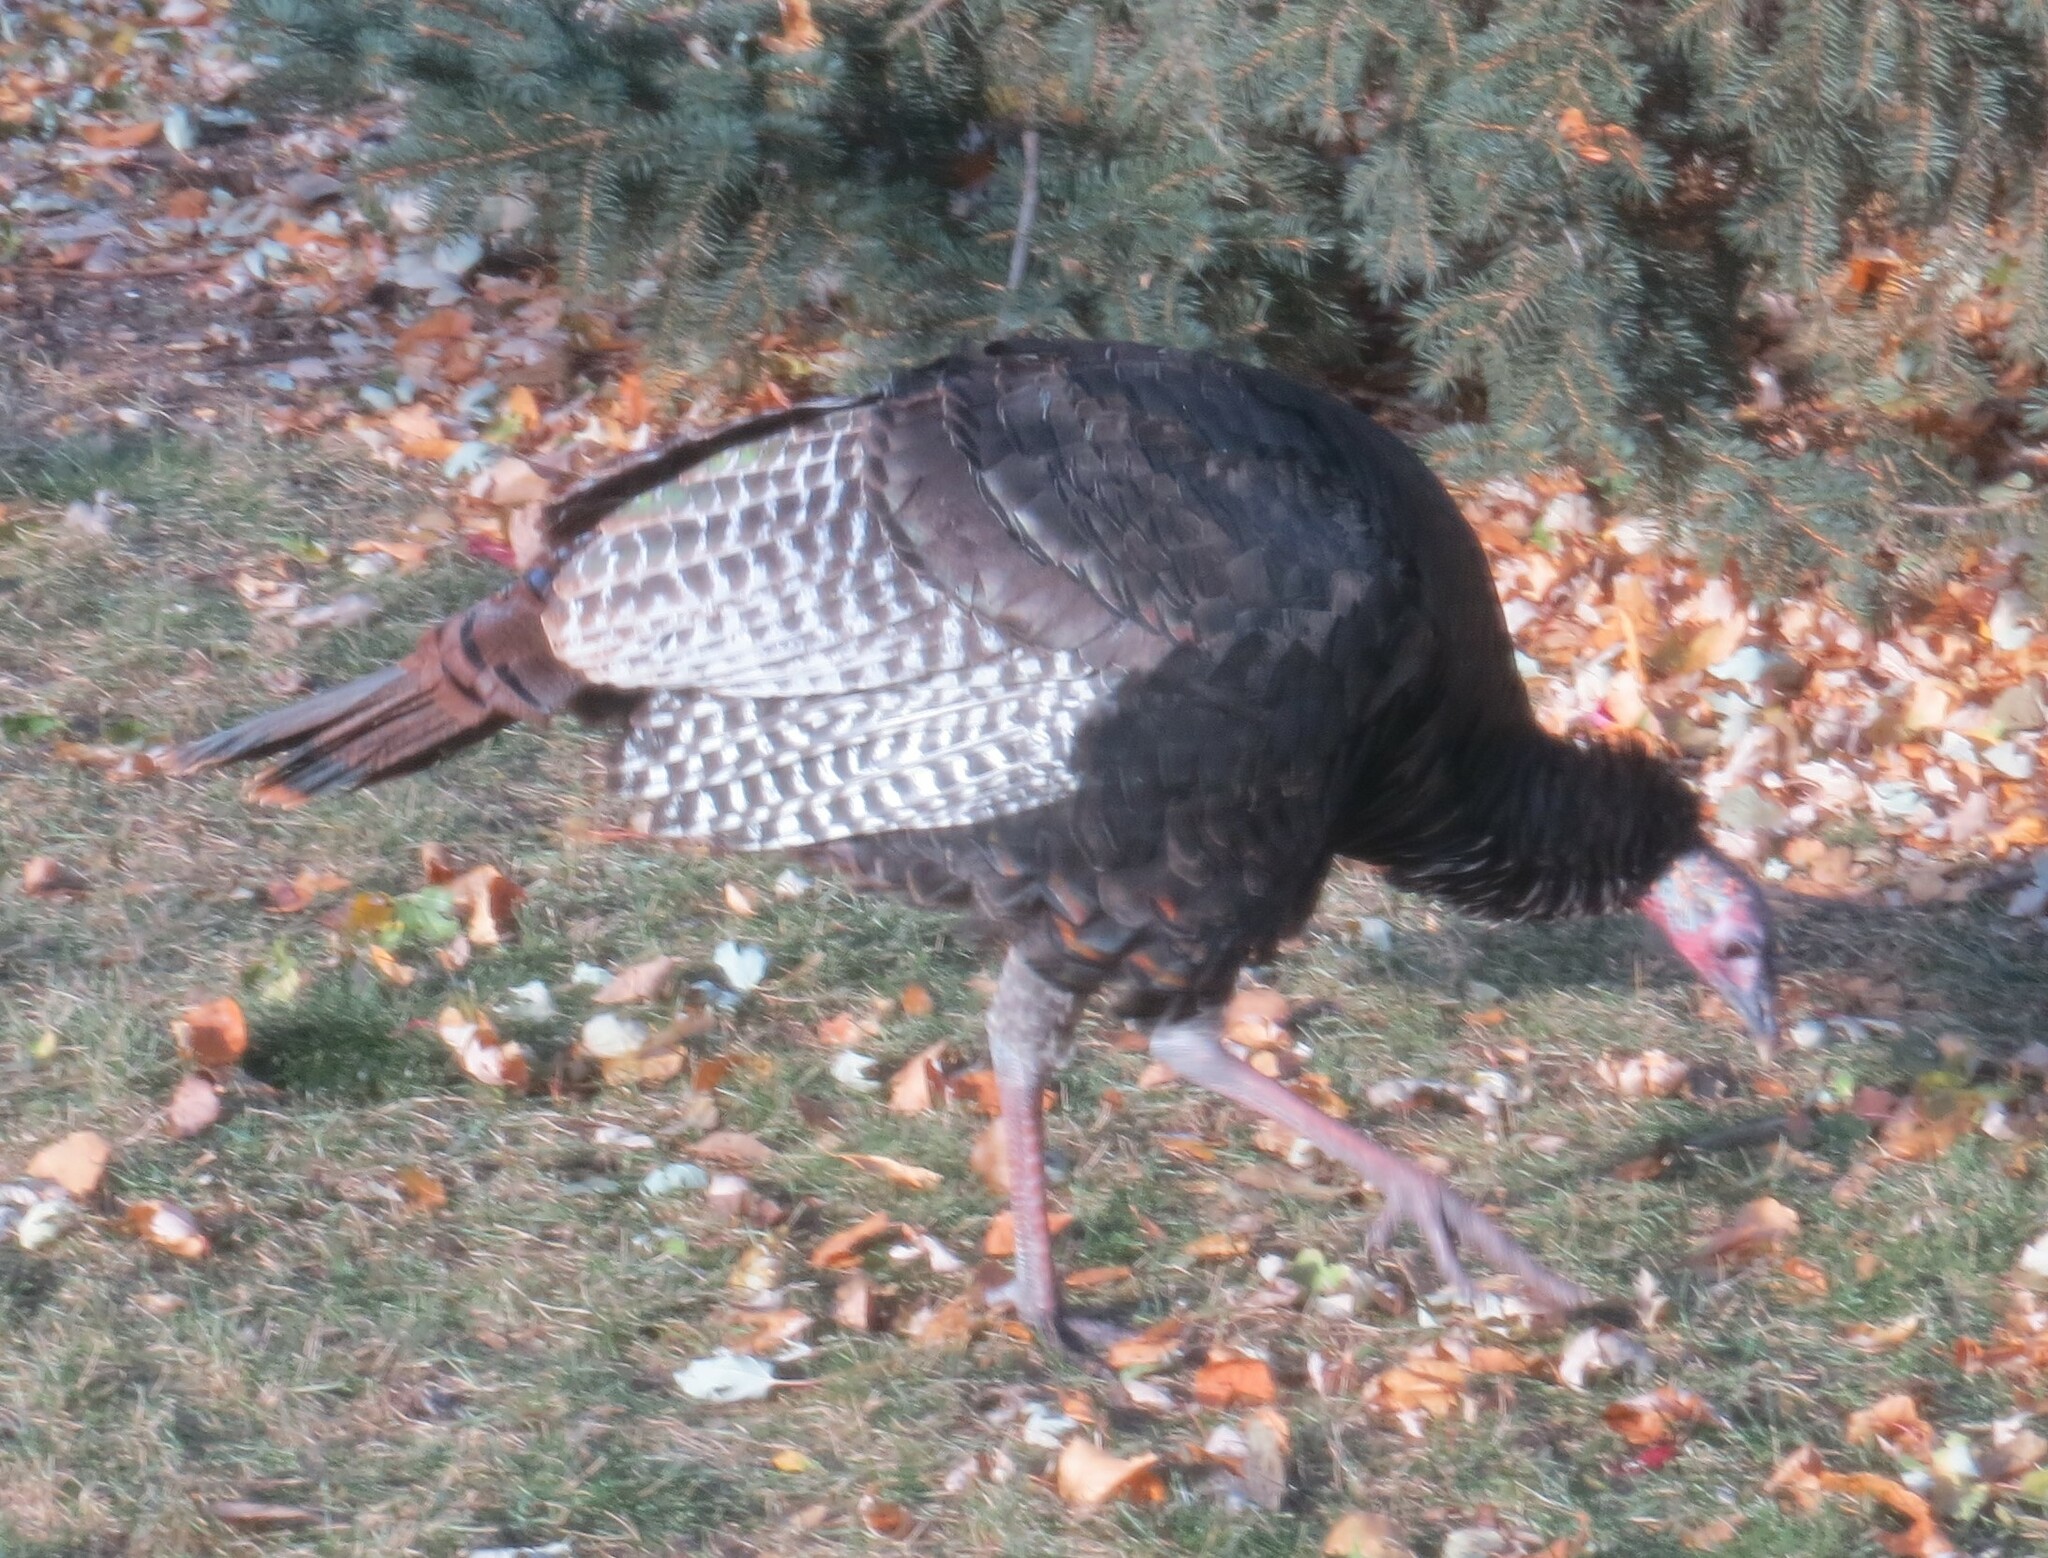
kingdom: Animalia
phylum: Chordata
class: Aves
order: Galliformes
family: Phasianidae
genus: Meleagris
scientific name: Meleagris gallopavo
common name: Wild turkey
